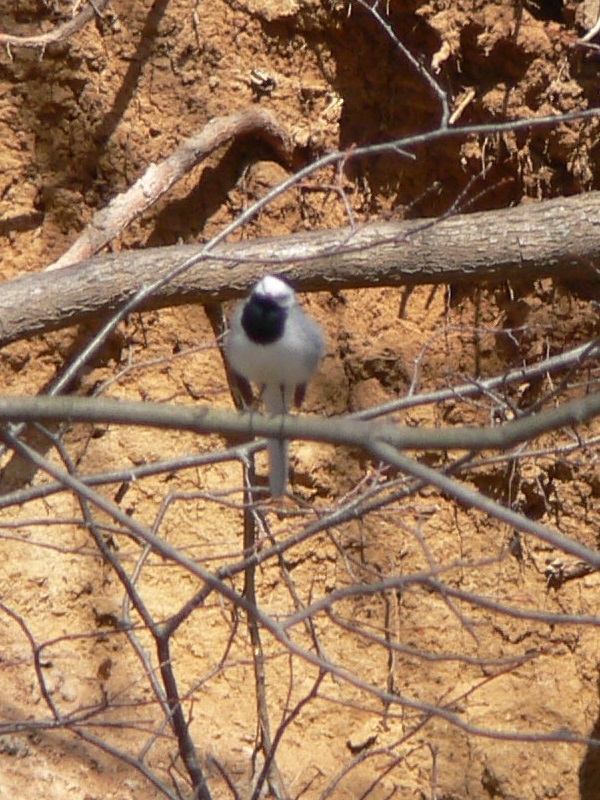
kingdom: Animalia
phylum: Chordata
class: Aves
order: Passeriformes
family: Motacillidae
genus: Motacilla
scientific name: Motacilla alba
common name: White wagtail
